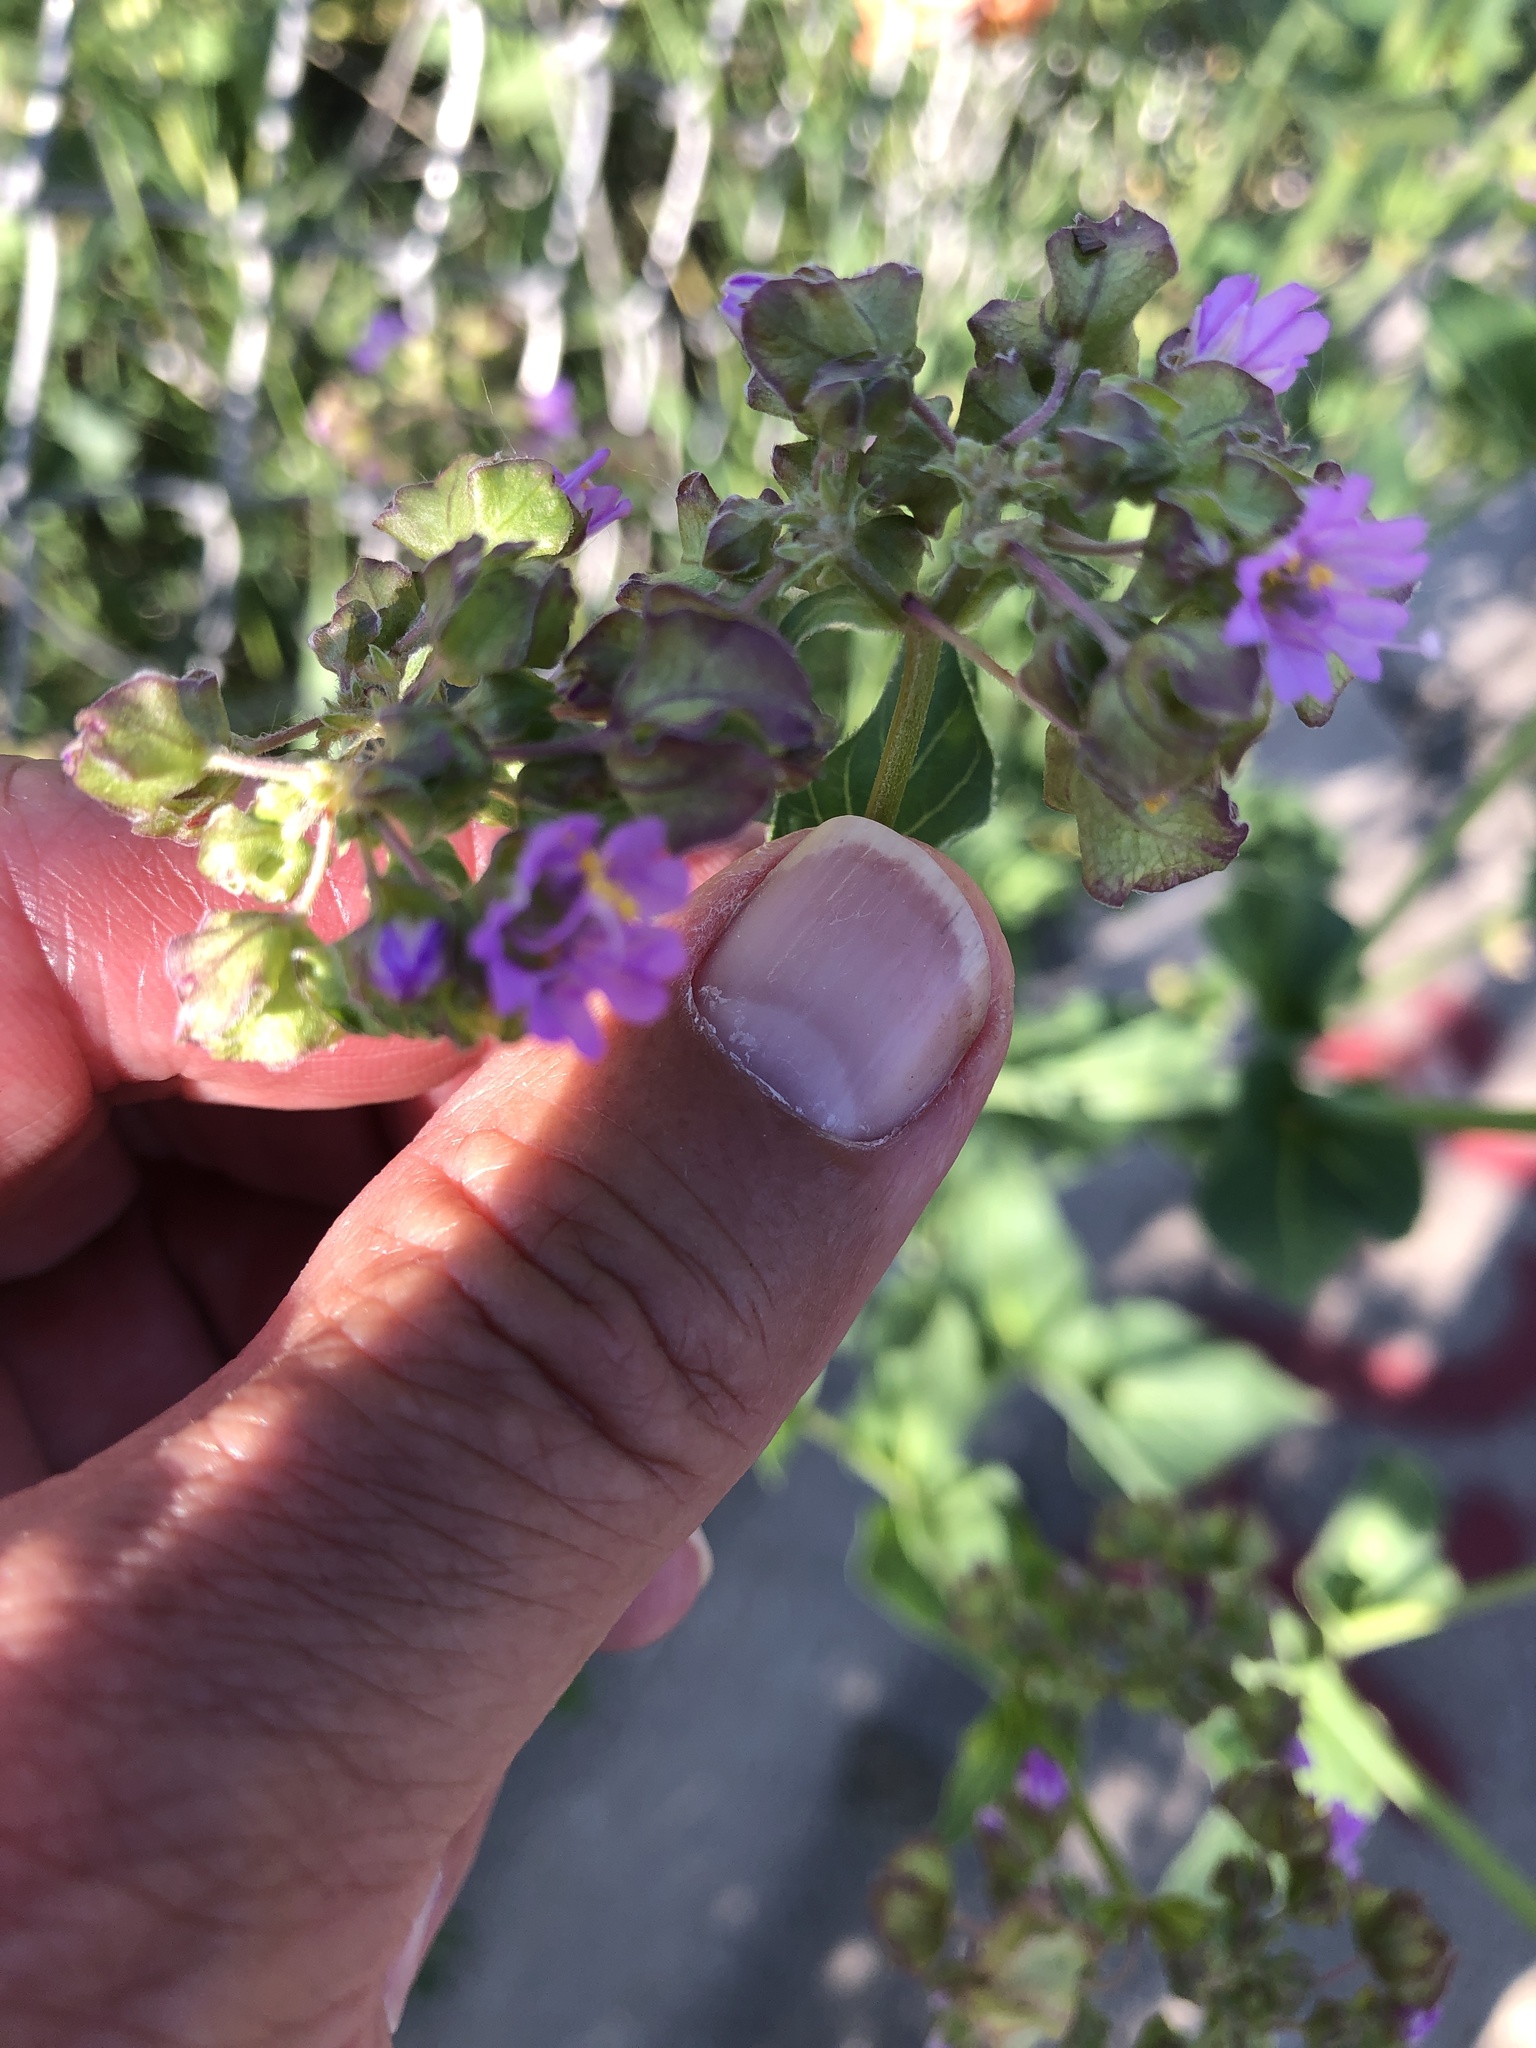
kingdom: Plantae
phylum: Tracheophyta
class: Magnoliopsida
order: Caryophyllales
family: Nyctaginaceae
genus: Mirabilis
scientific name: Mirabilis nyctaginea
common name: Umbrella wort
